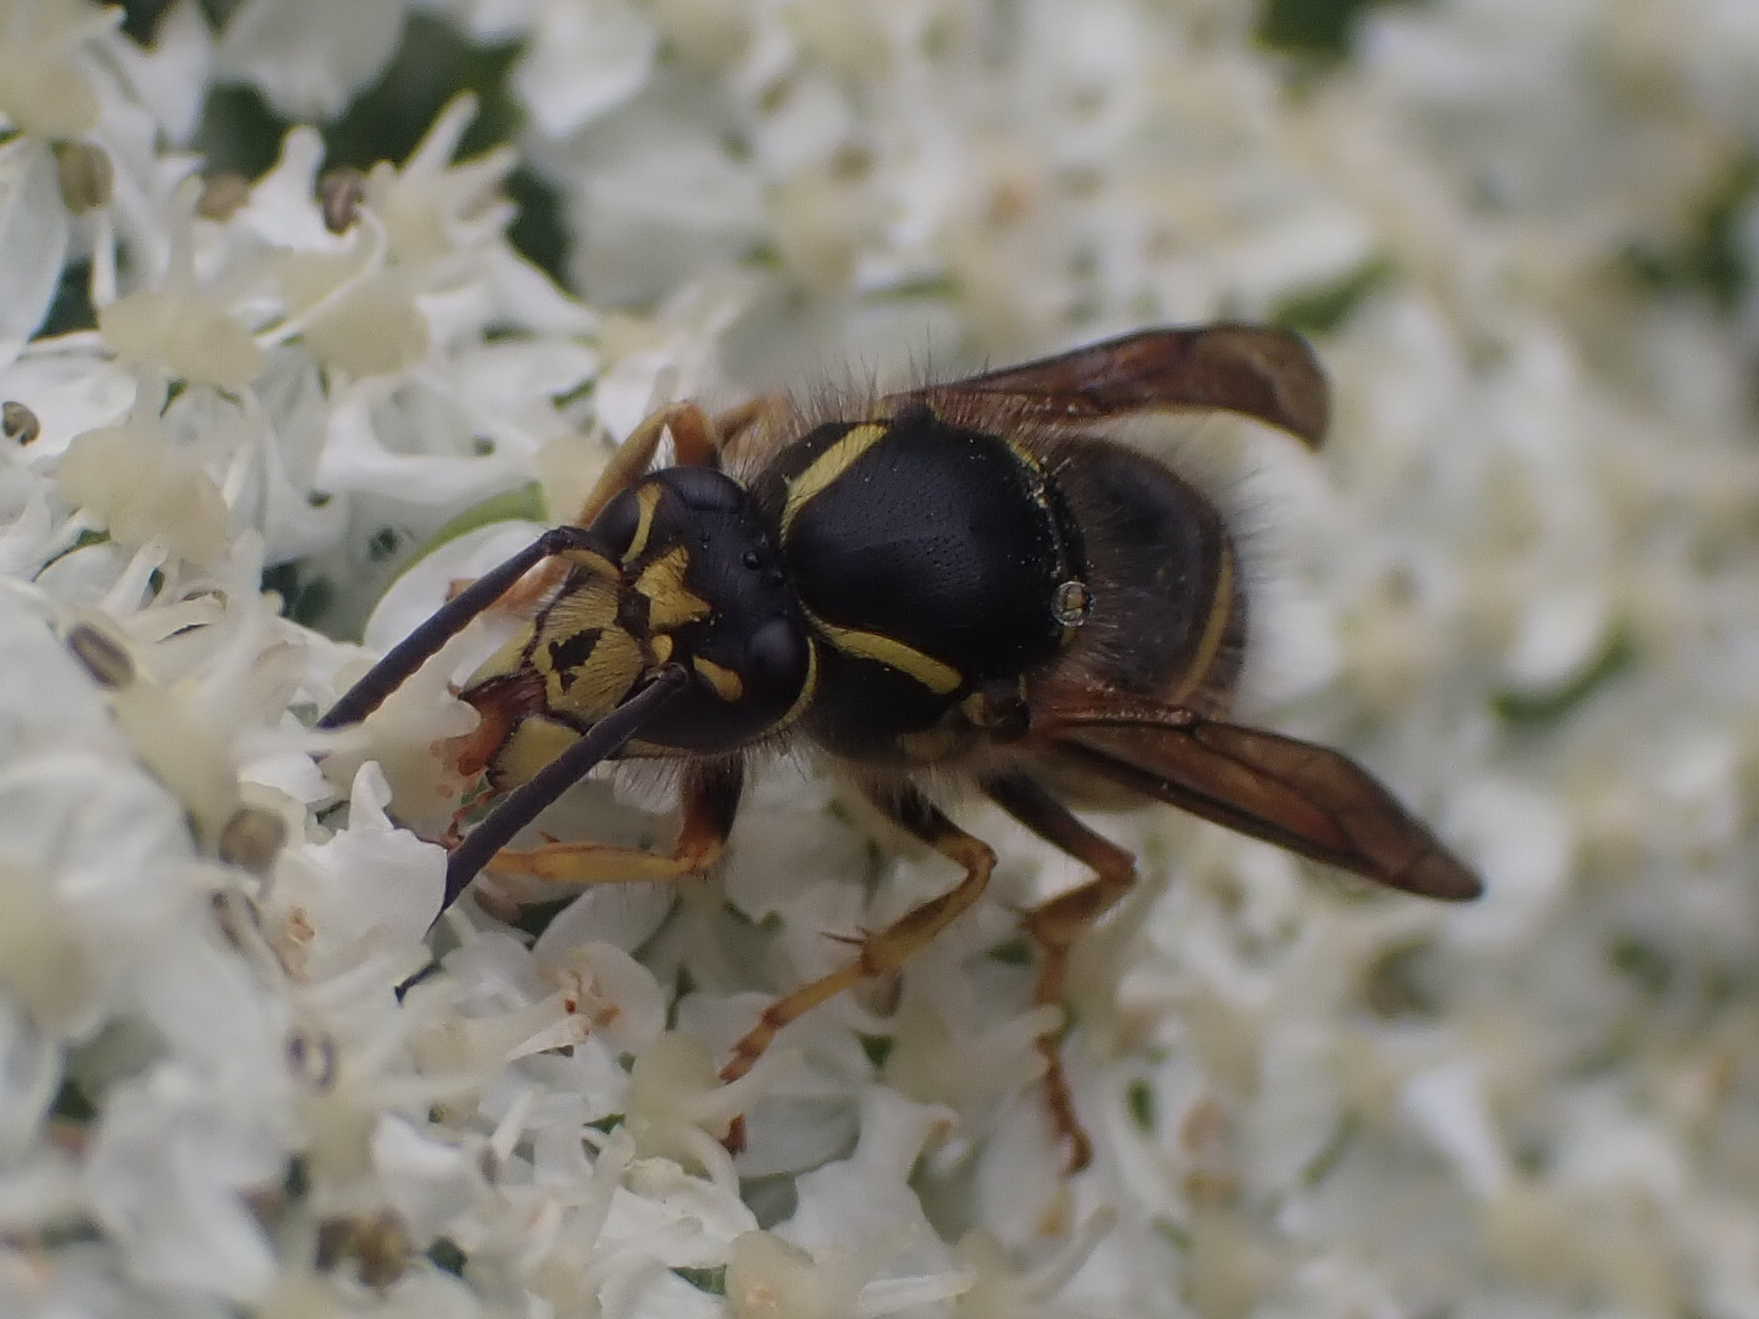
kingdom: Animalia
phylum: Arthropoda
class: Insecta
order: Hymenoptera
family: Vespidae
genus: Dolichovespula
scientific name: Dolichovespula arenaria
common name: Aerial yellowjacket
